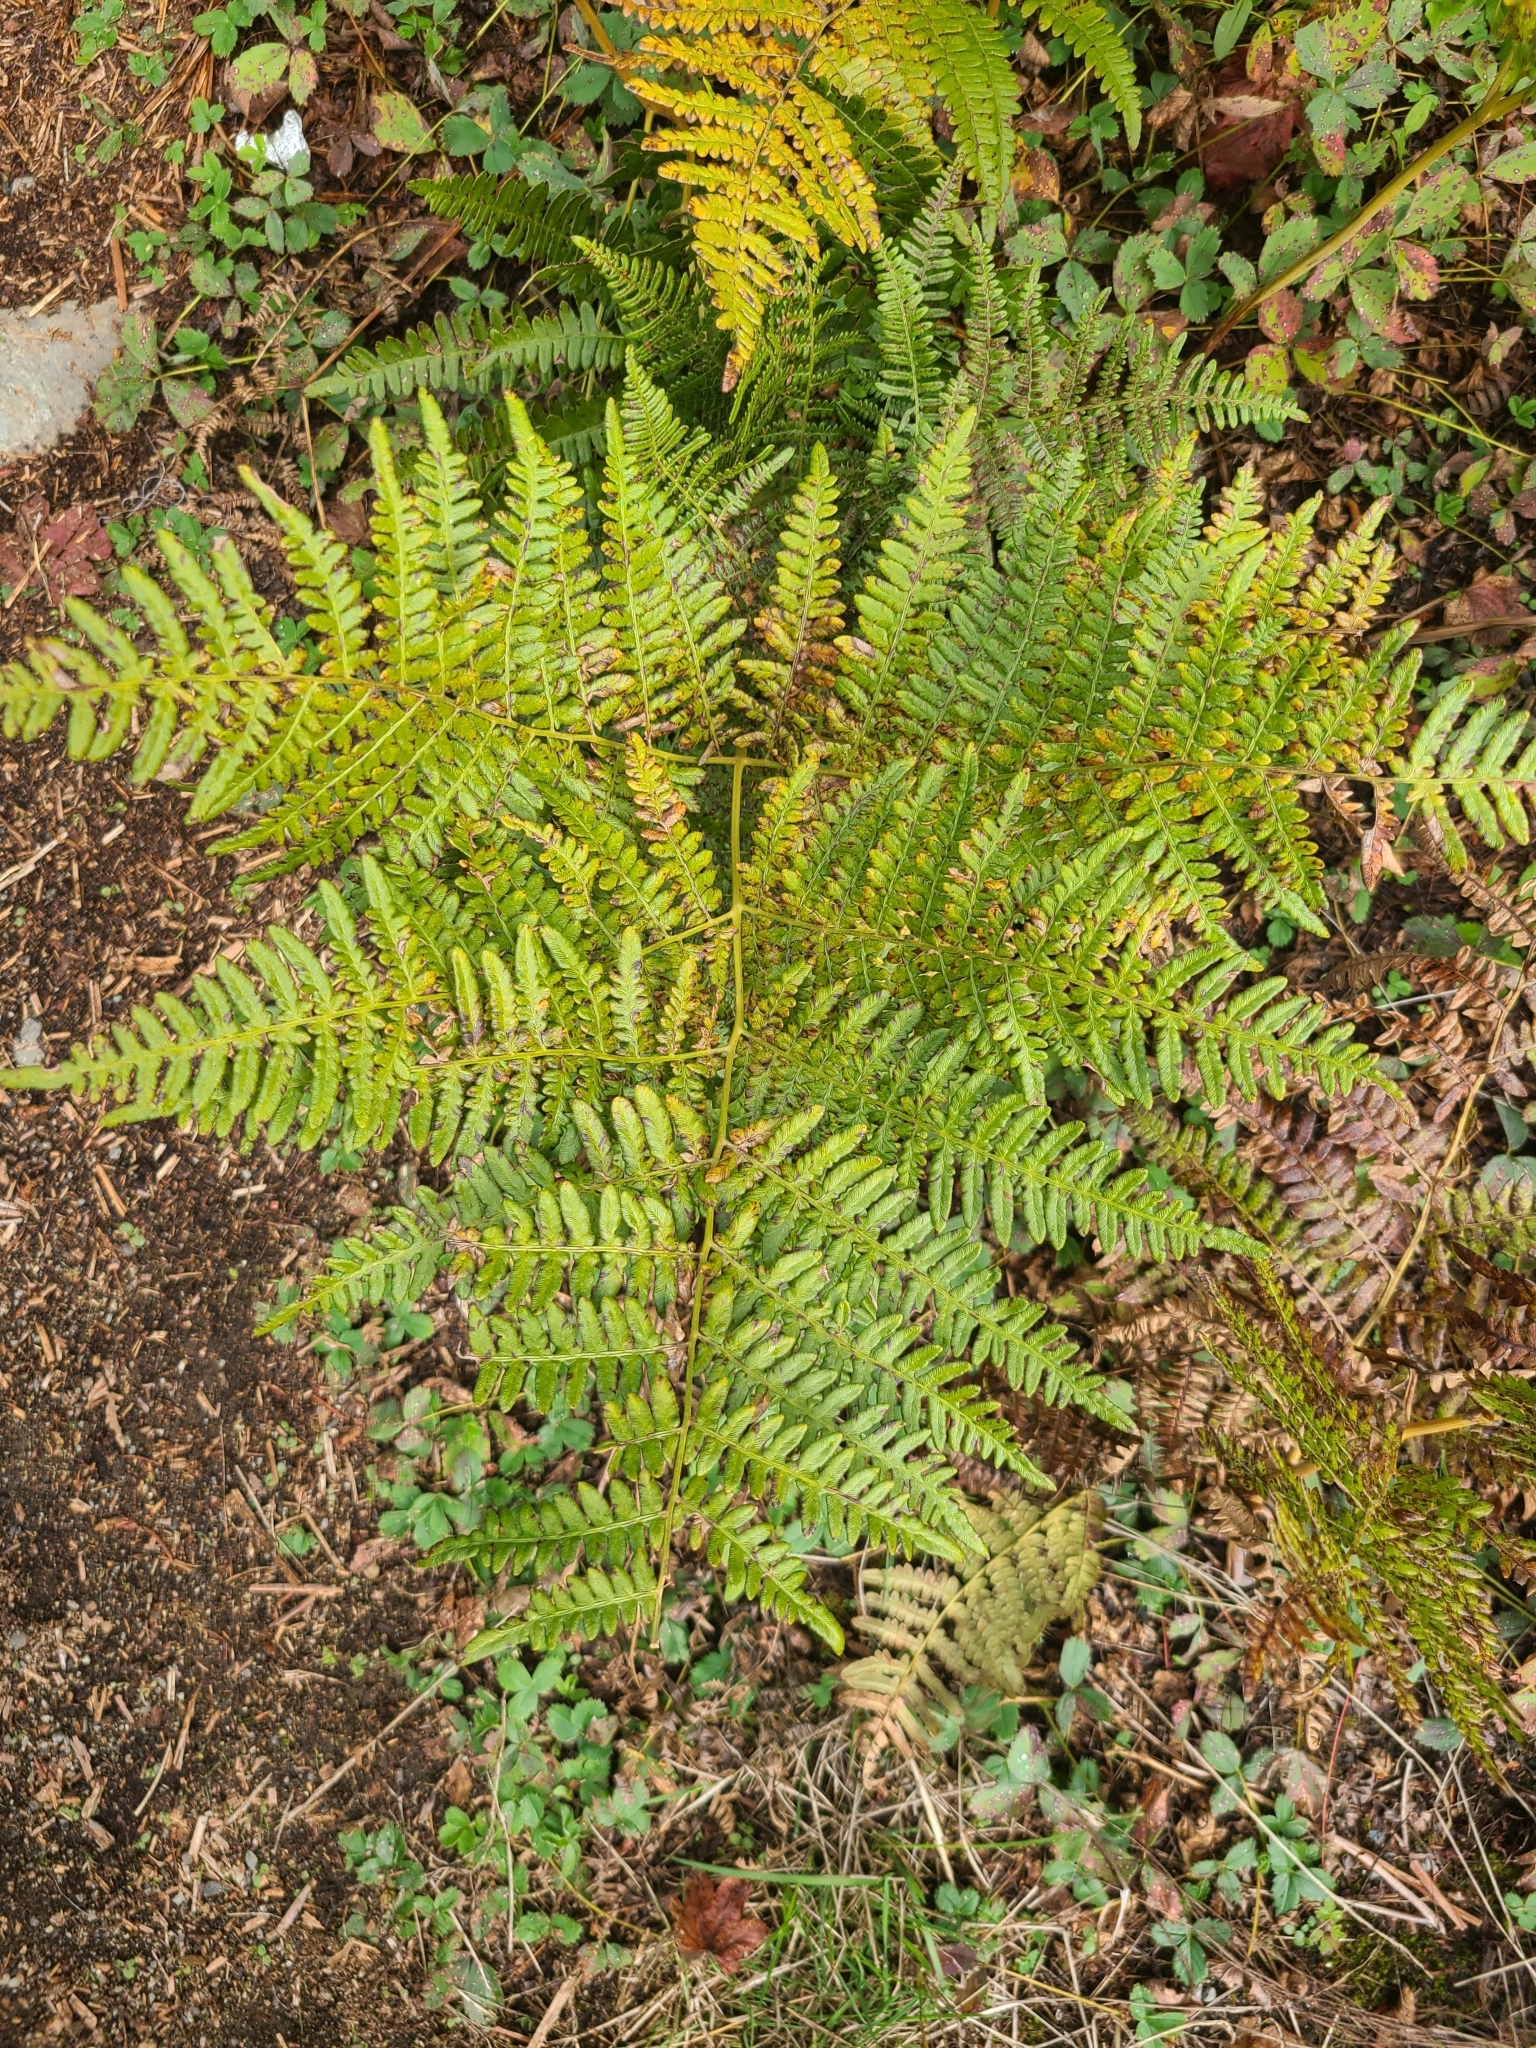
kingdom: Plantae
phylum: Tracheophyta
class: Polypodiopsida
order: Polypodiales
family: Dennstaedtiaceae
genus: Pteridium
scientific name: Pteridium aquilinum
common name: Bracken
